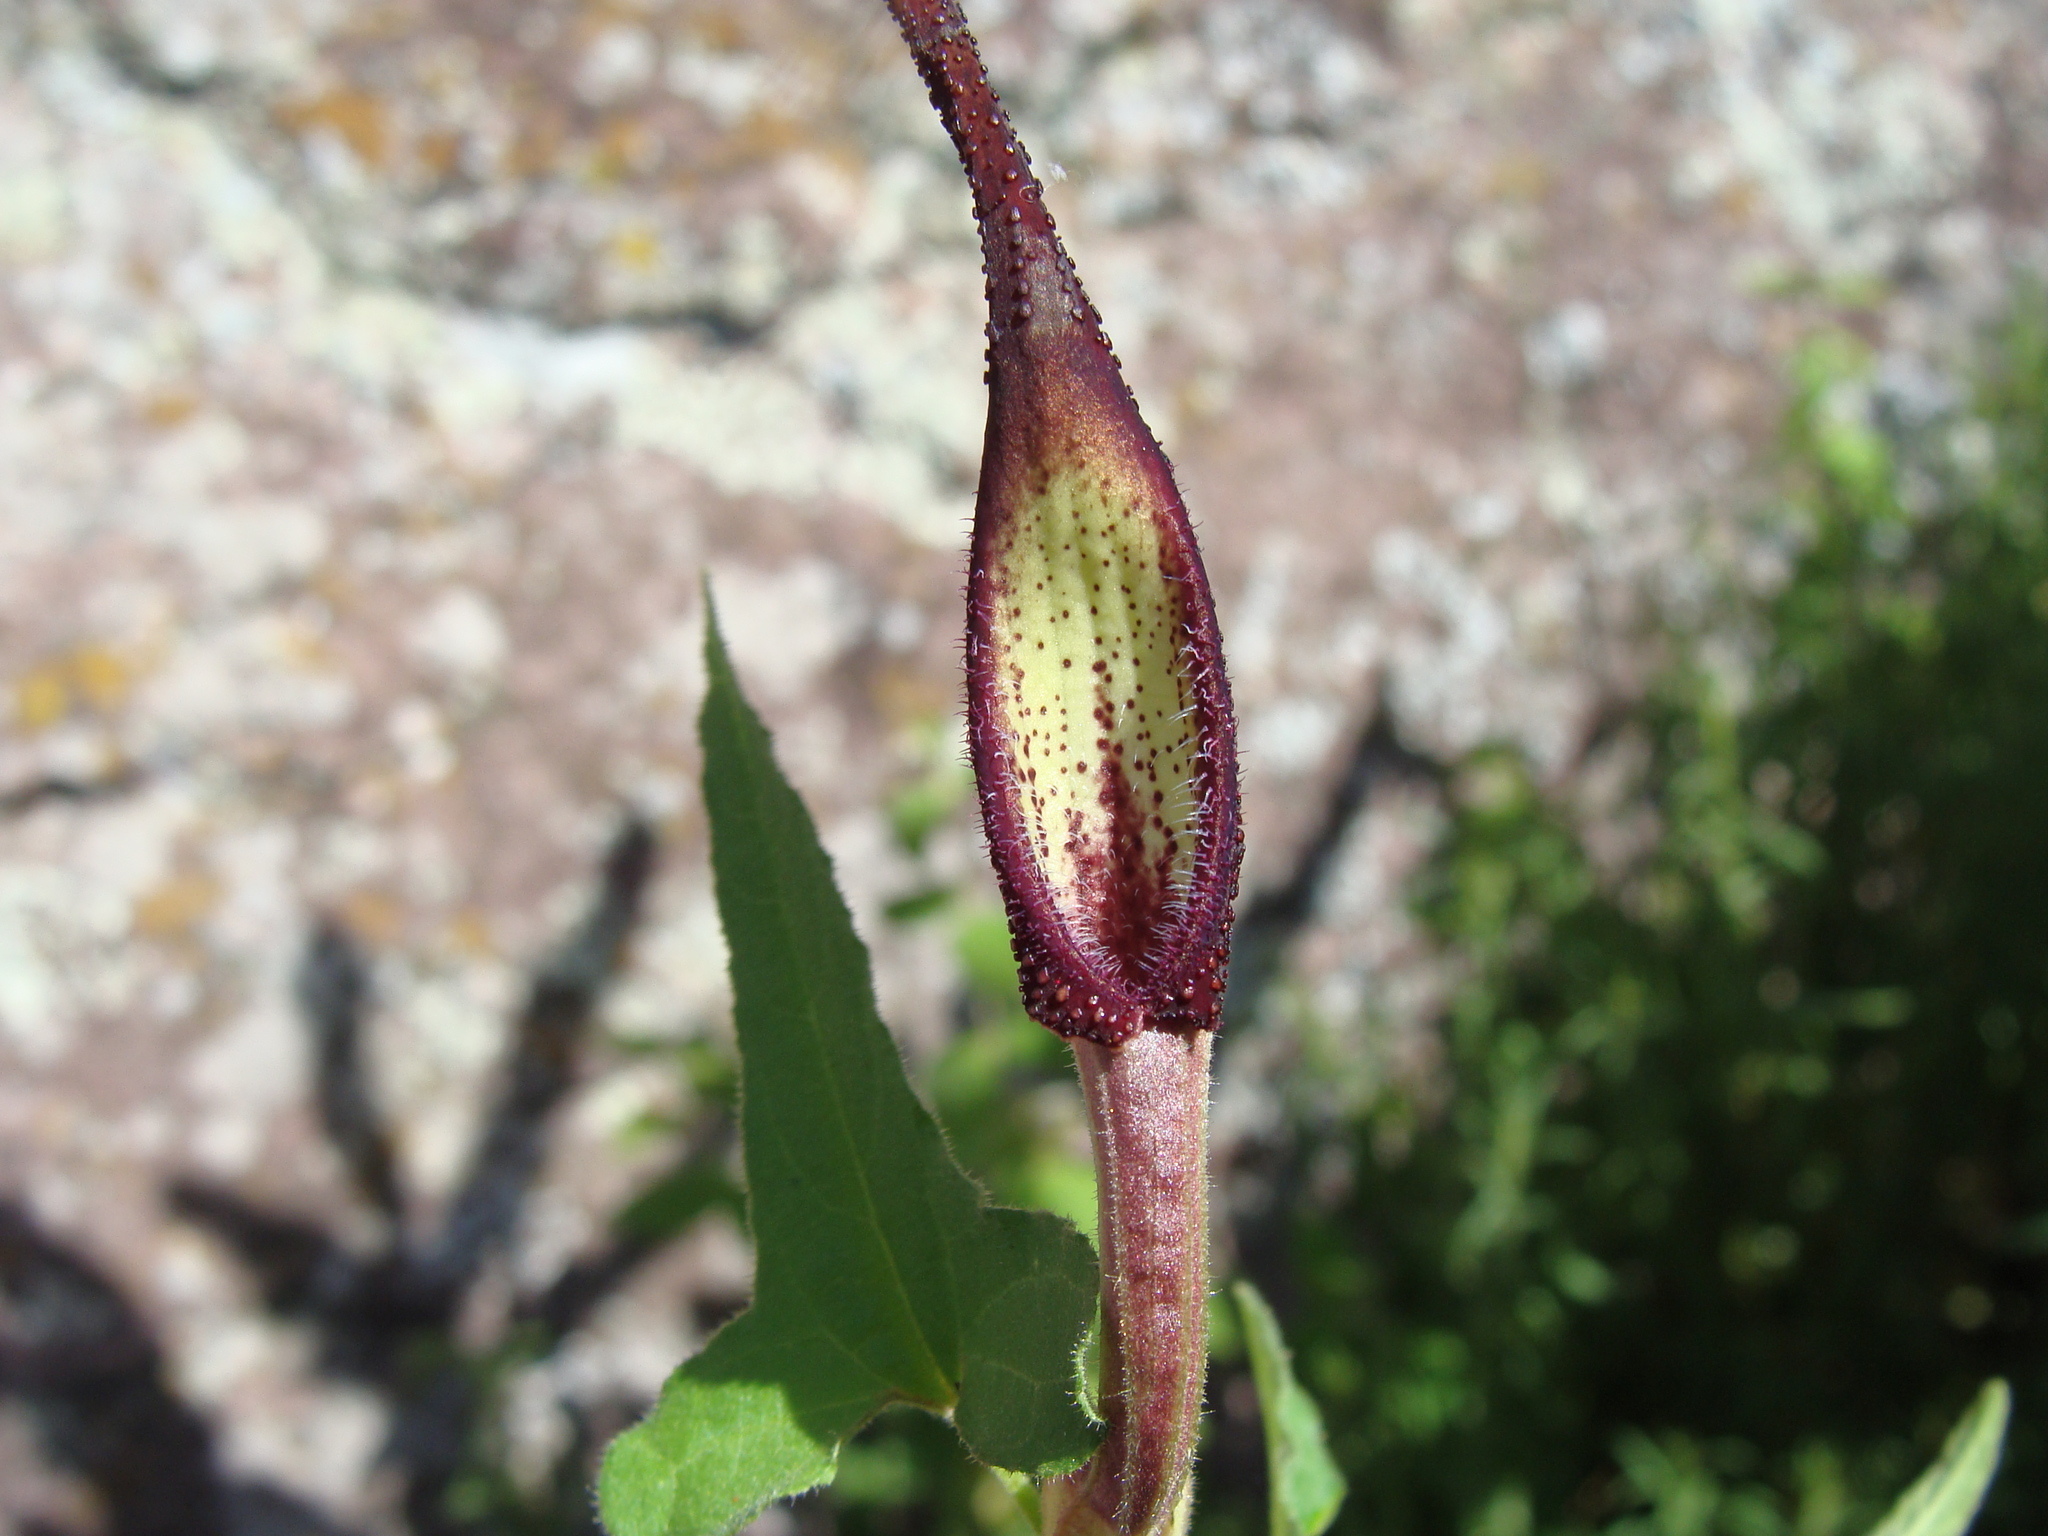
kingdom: Plantae
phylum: Tracheophyta
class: Magnoliopsida
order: Piperales
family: Aristolochiaceae
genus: Aristolochia
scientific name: Aristolochia wrightii
